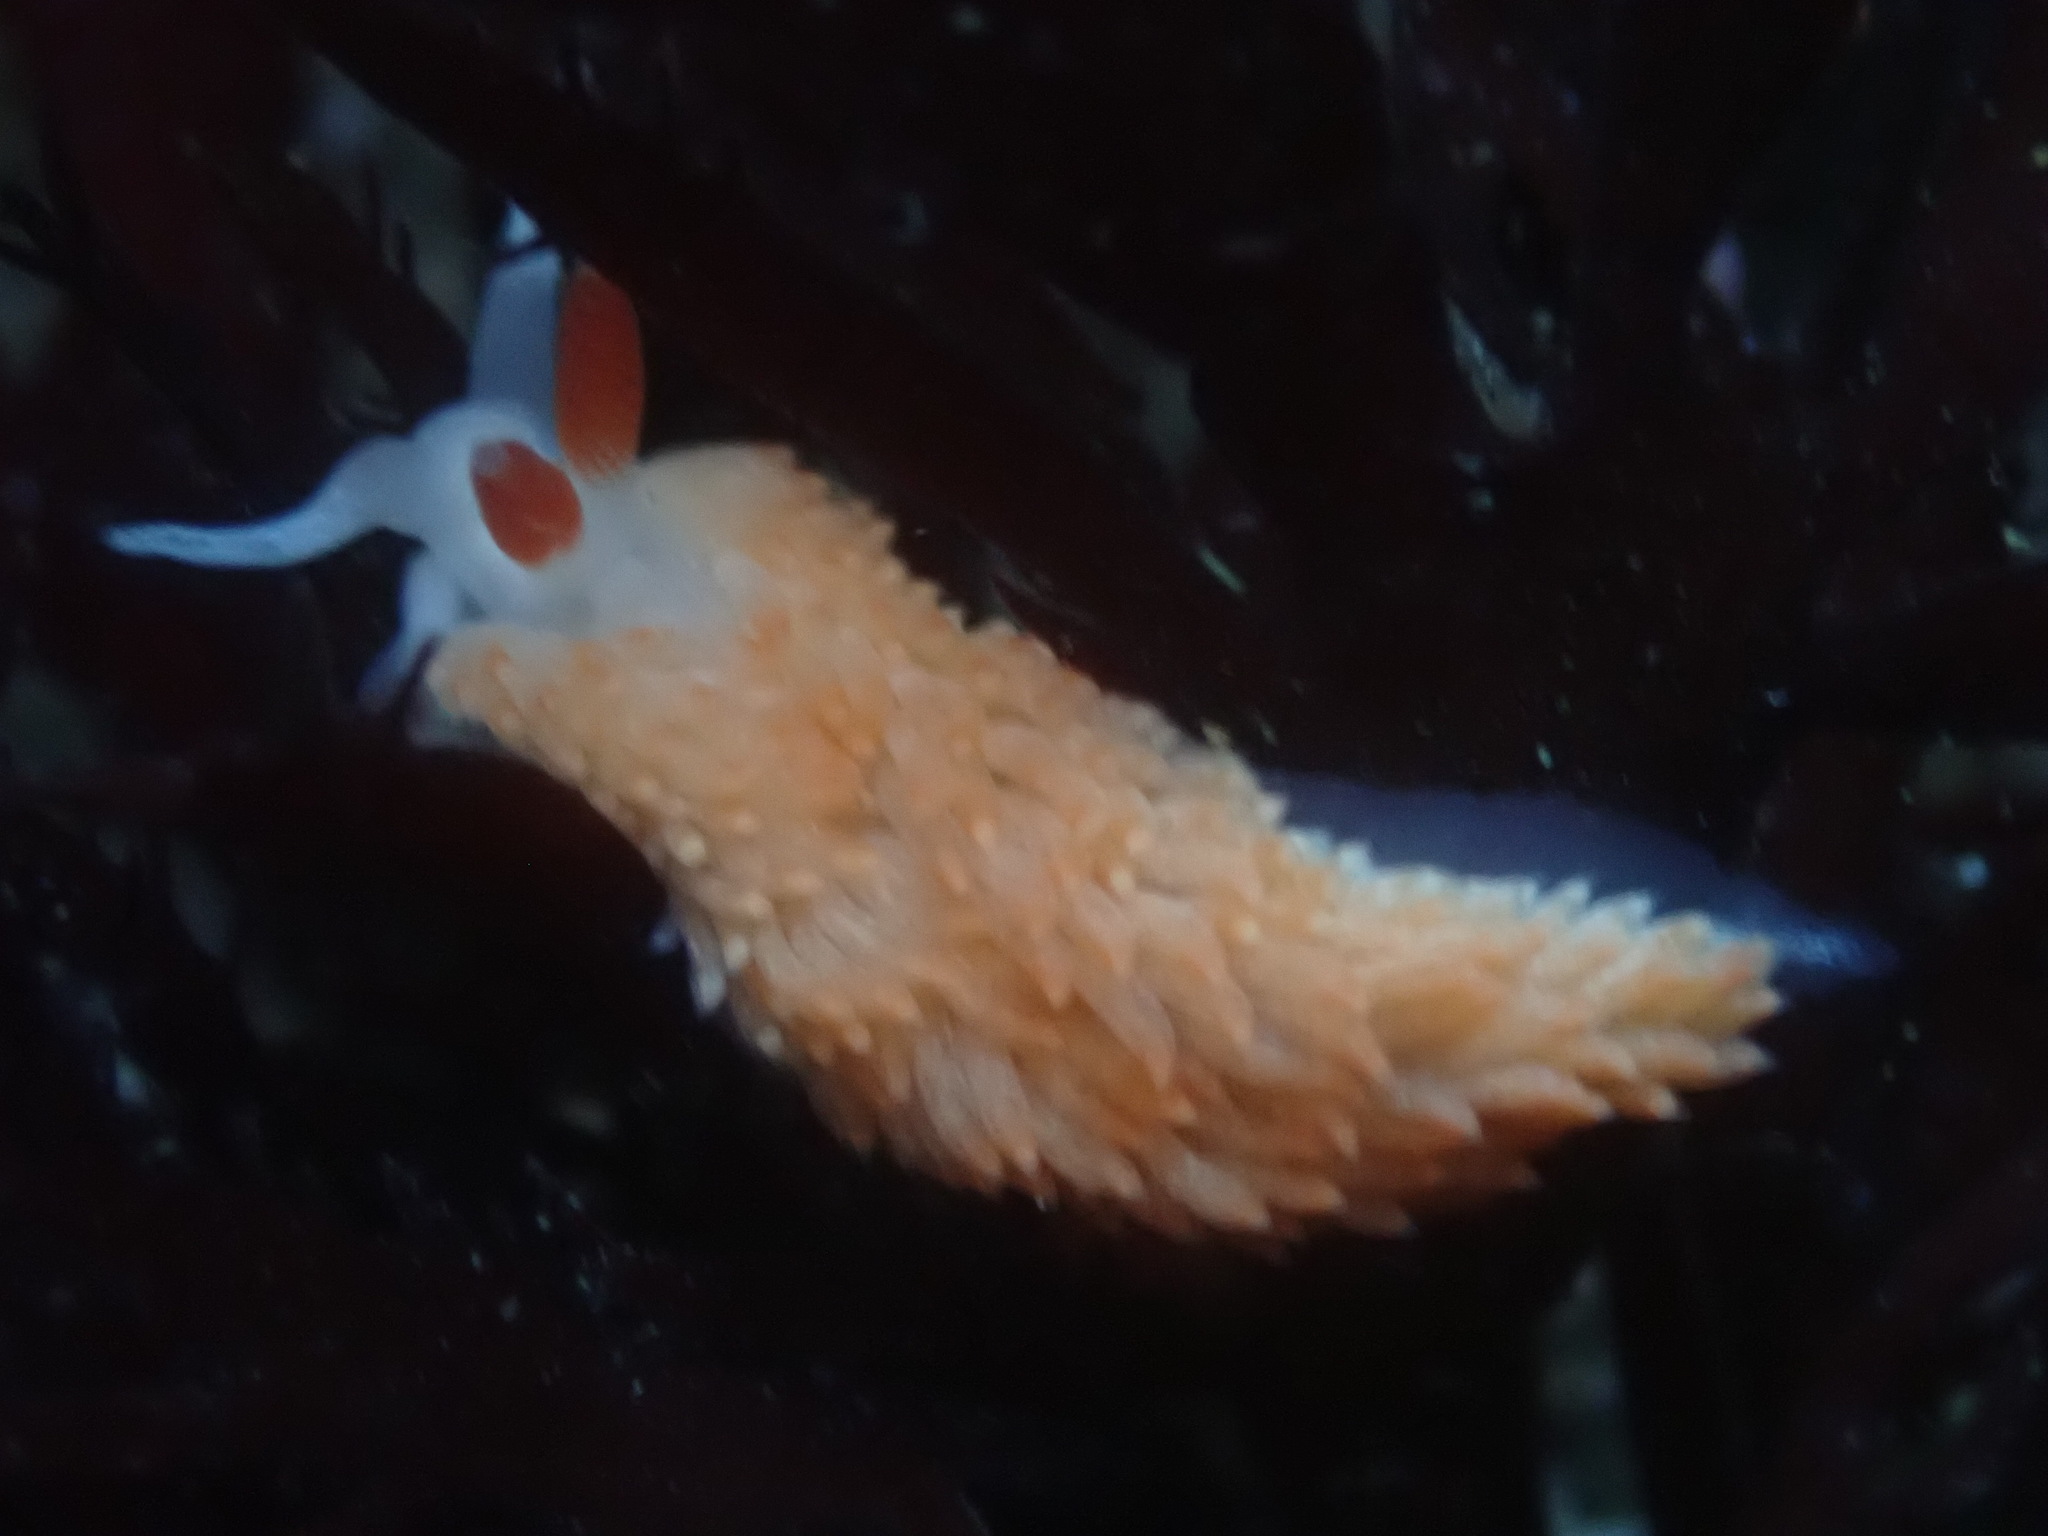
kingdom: Animalia
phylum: Mollusca
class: Gastropoda
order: Nudibranchia
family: Aeolidiidae
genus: Anteaeolidiella
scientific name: Anteaeolidiella oliviae
